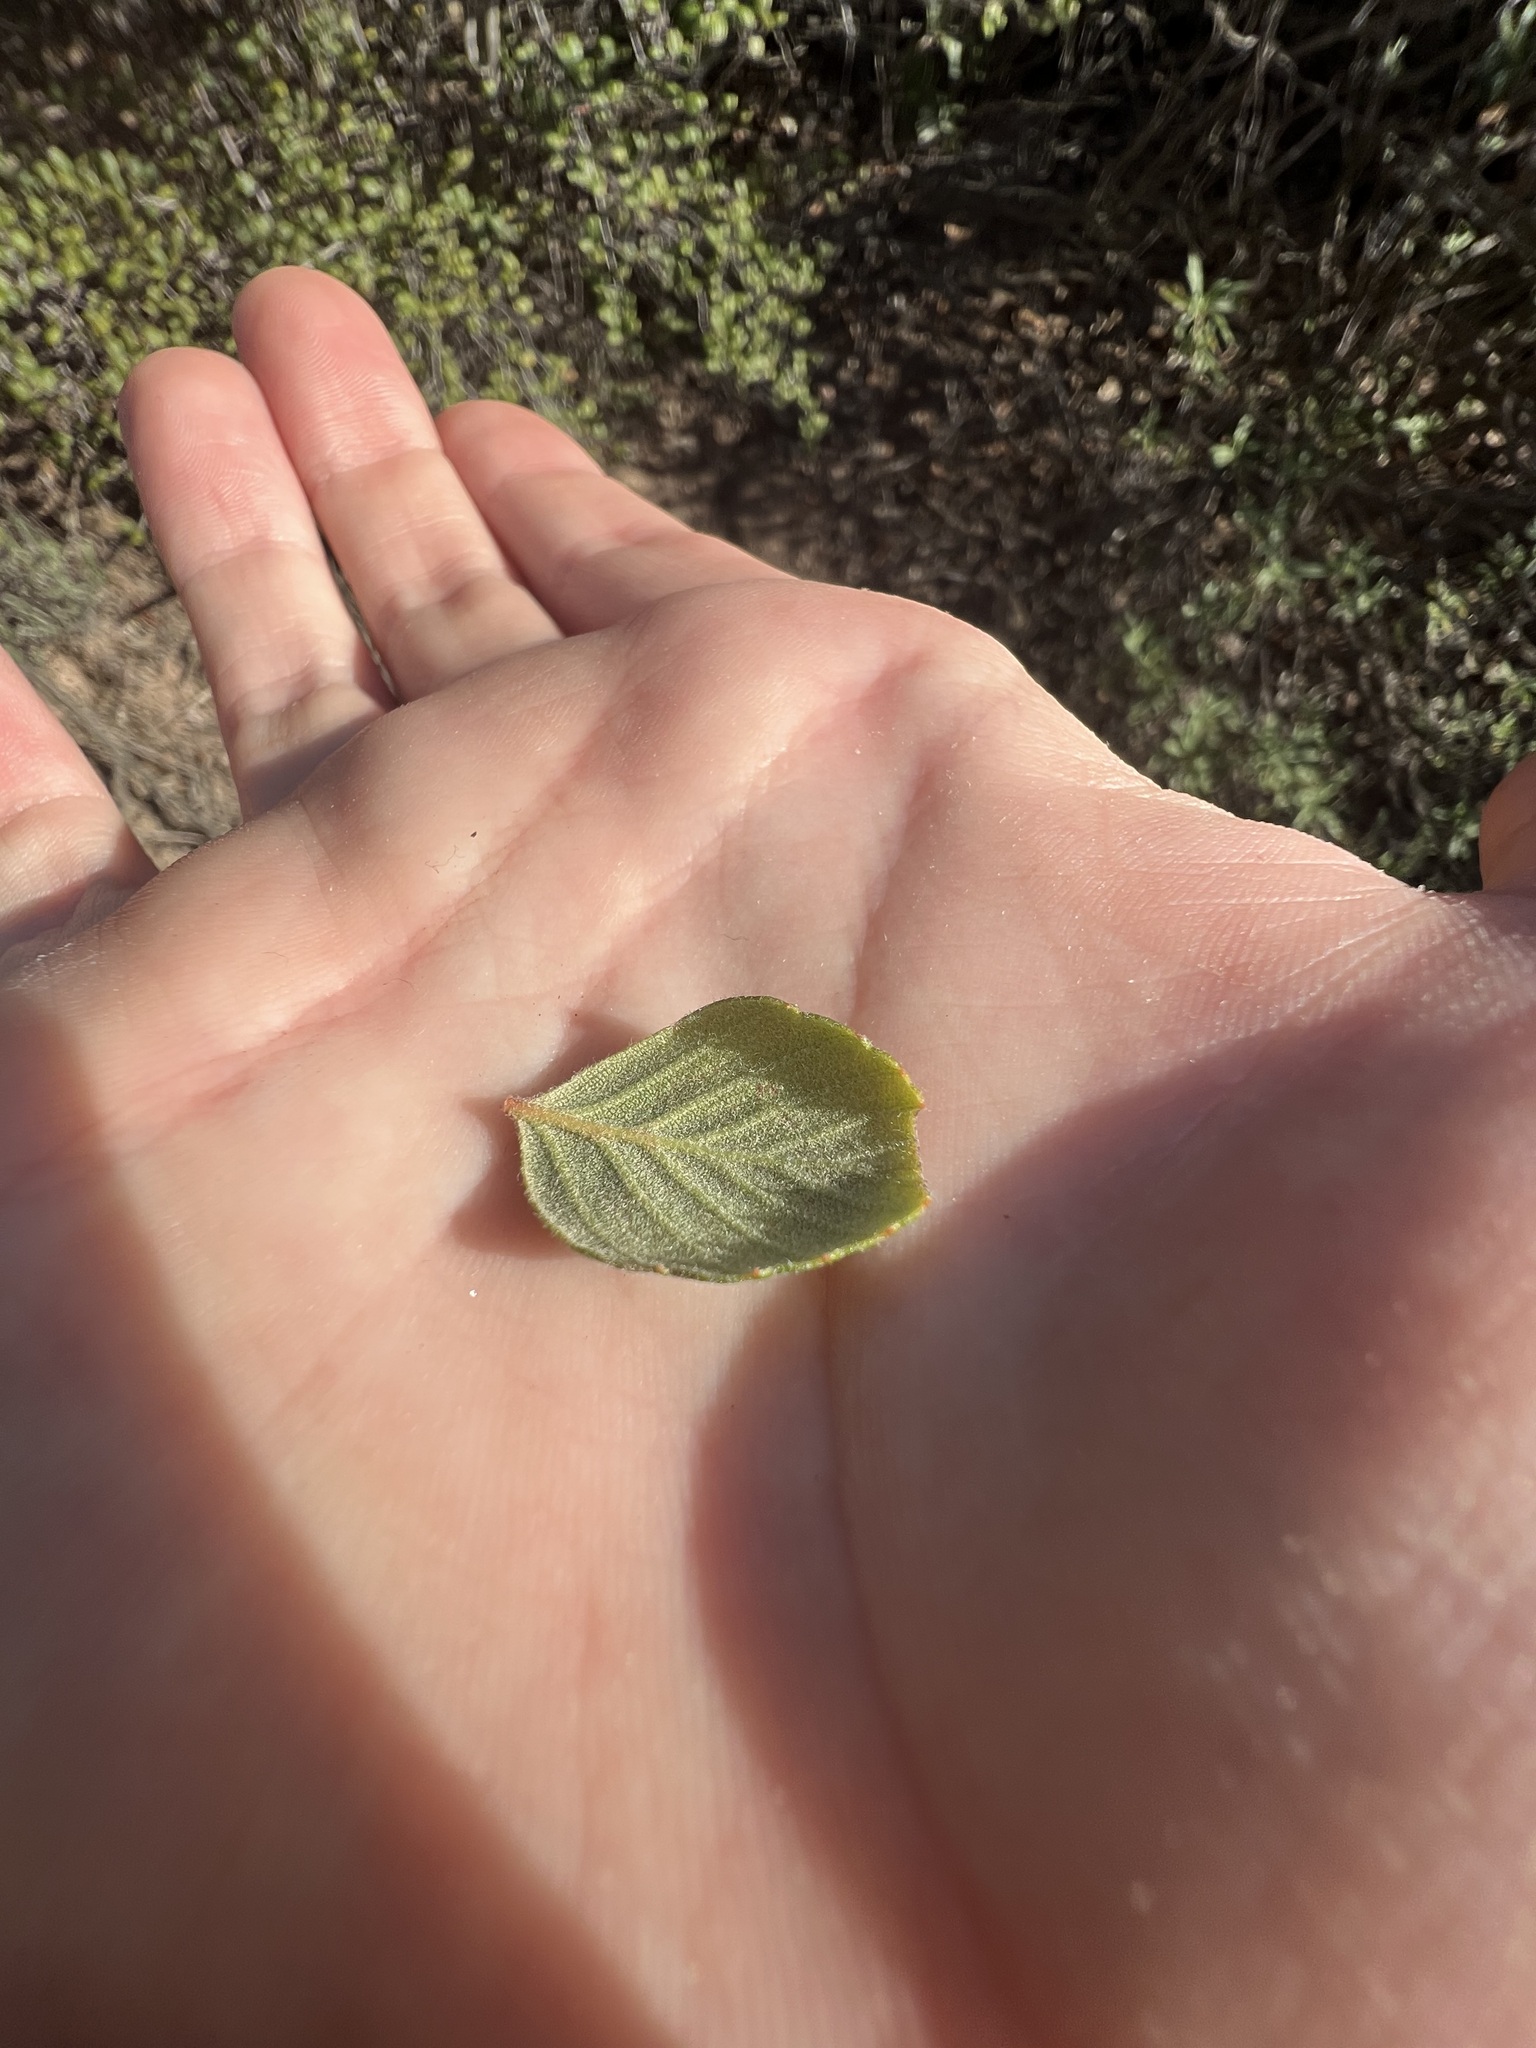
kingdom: Plantae
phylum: Tracheophyta
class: Magnoliopsida
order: Rosales
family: Rosaceae
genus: Cercocarpus
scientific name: Cercocarpus betuloides
